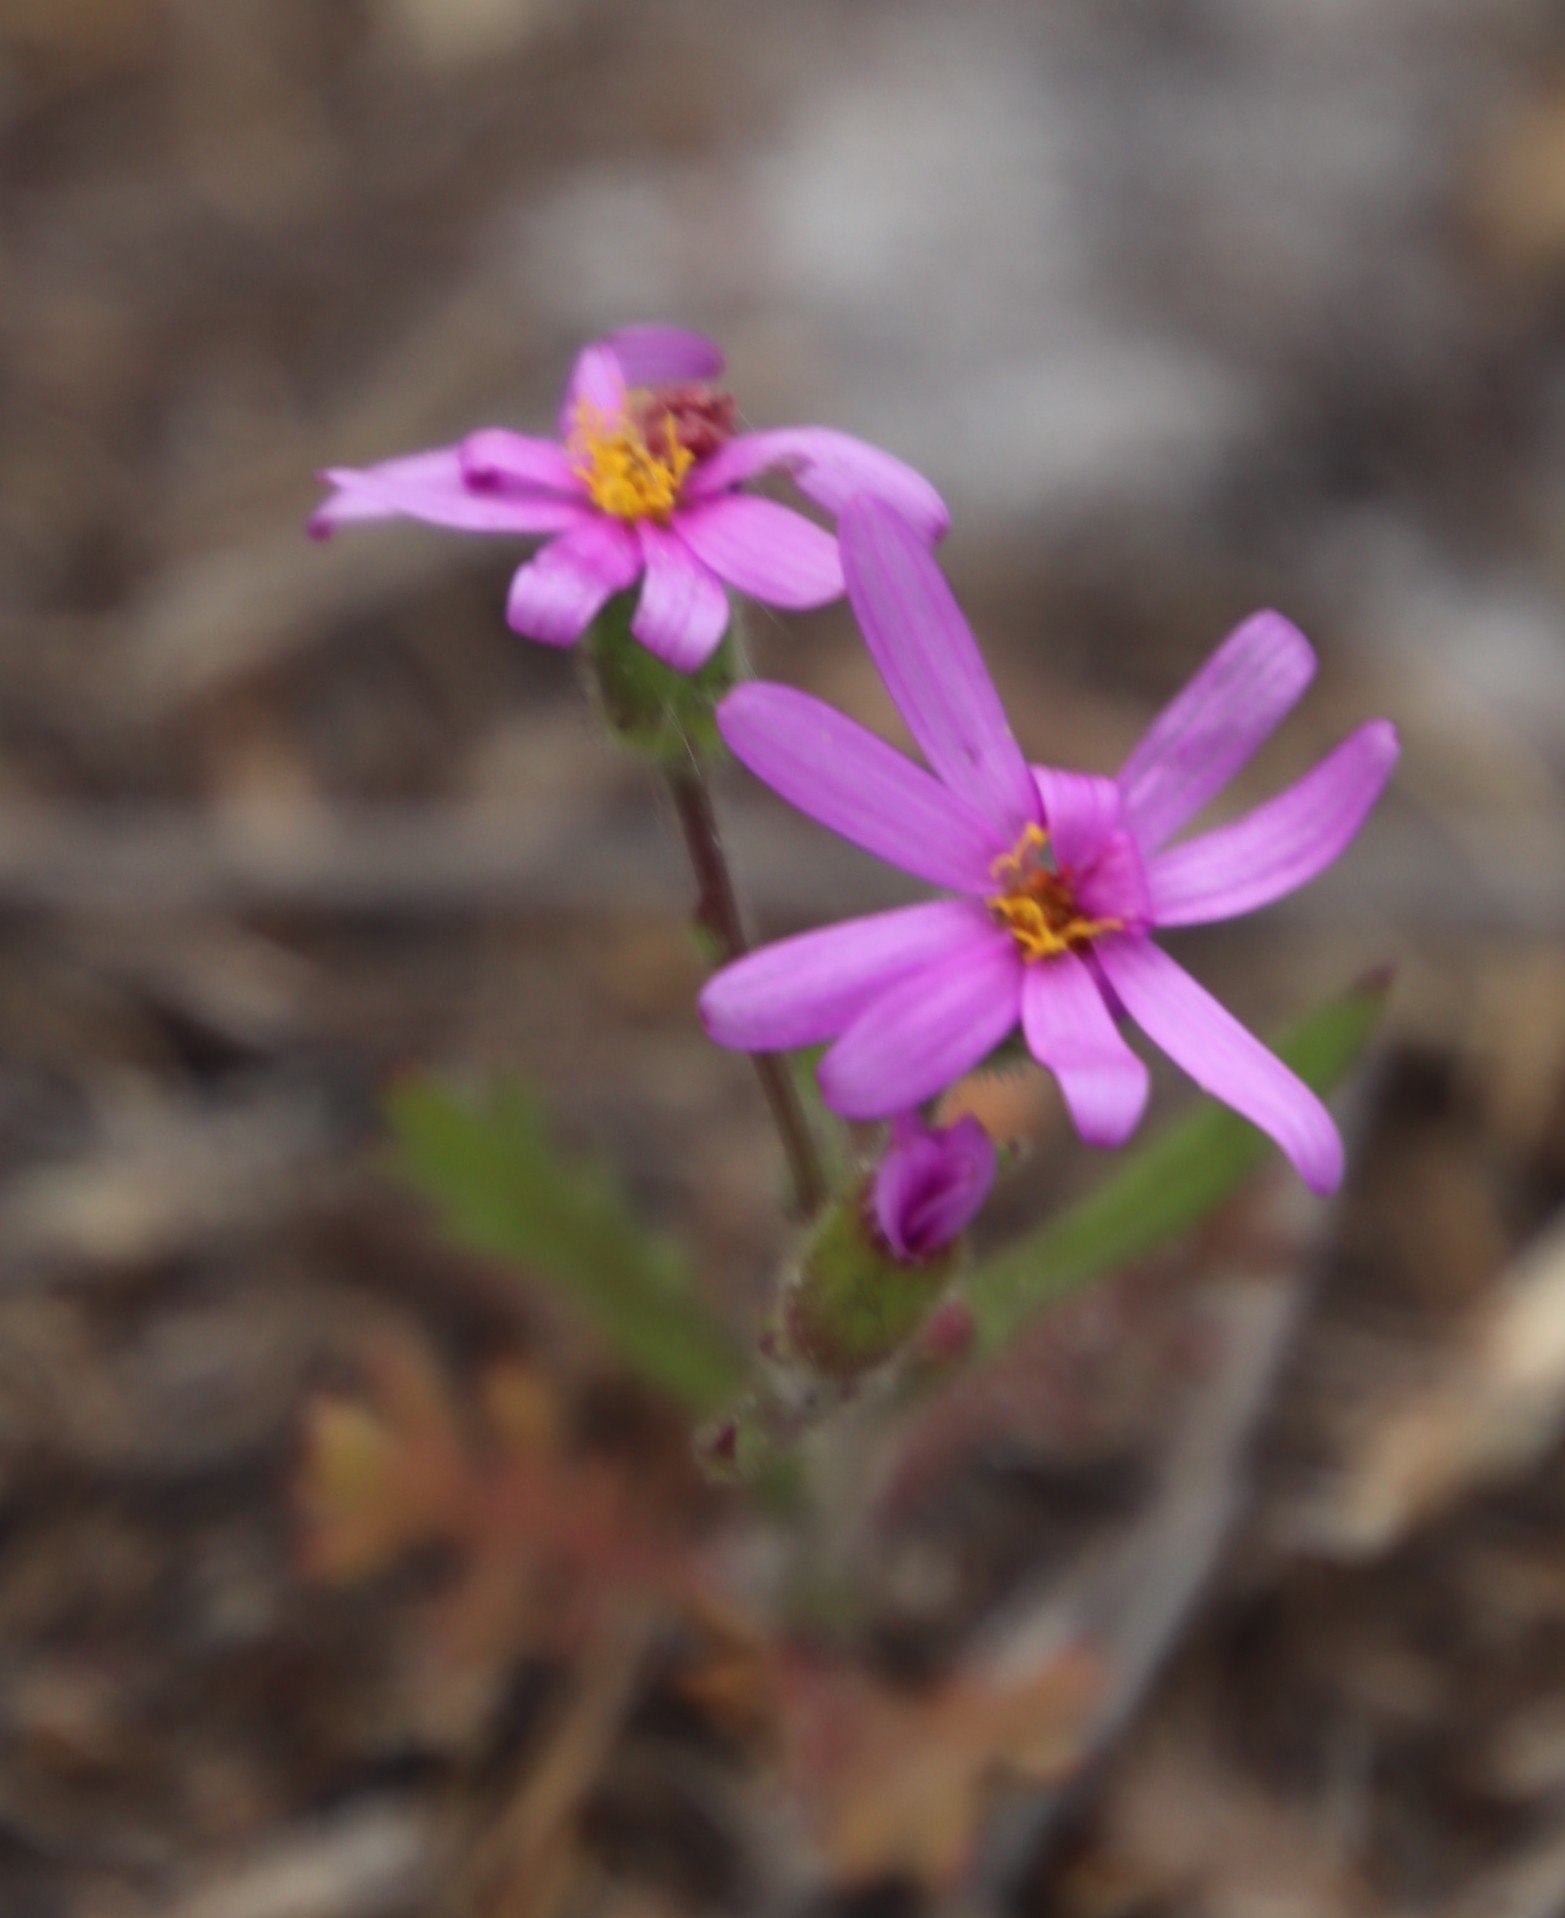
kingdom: Plantae
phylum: Tracheophyta
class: Magnoliopsida
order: Asterales
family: Asteraceae
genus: Senecio
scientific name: Senecio arenarius
